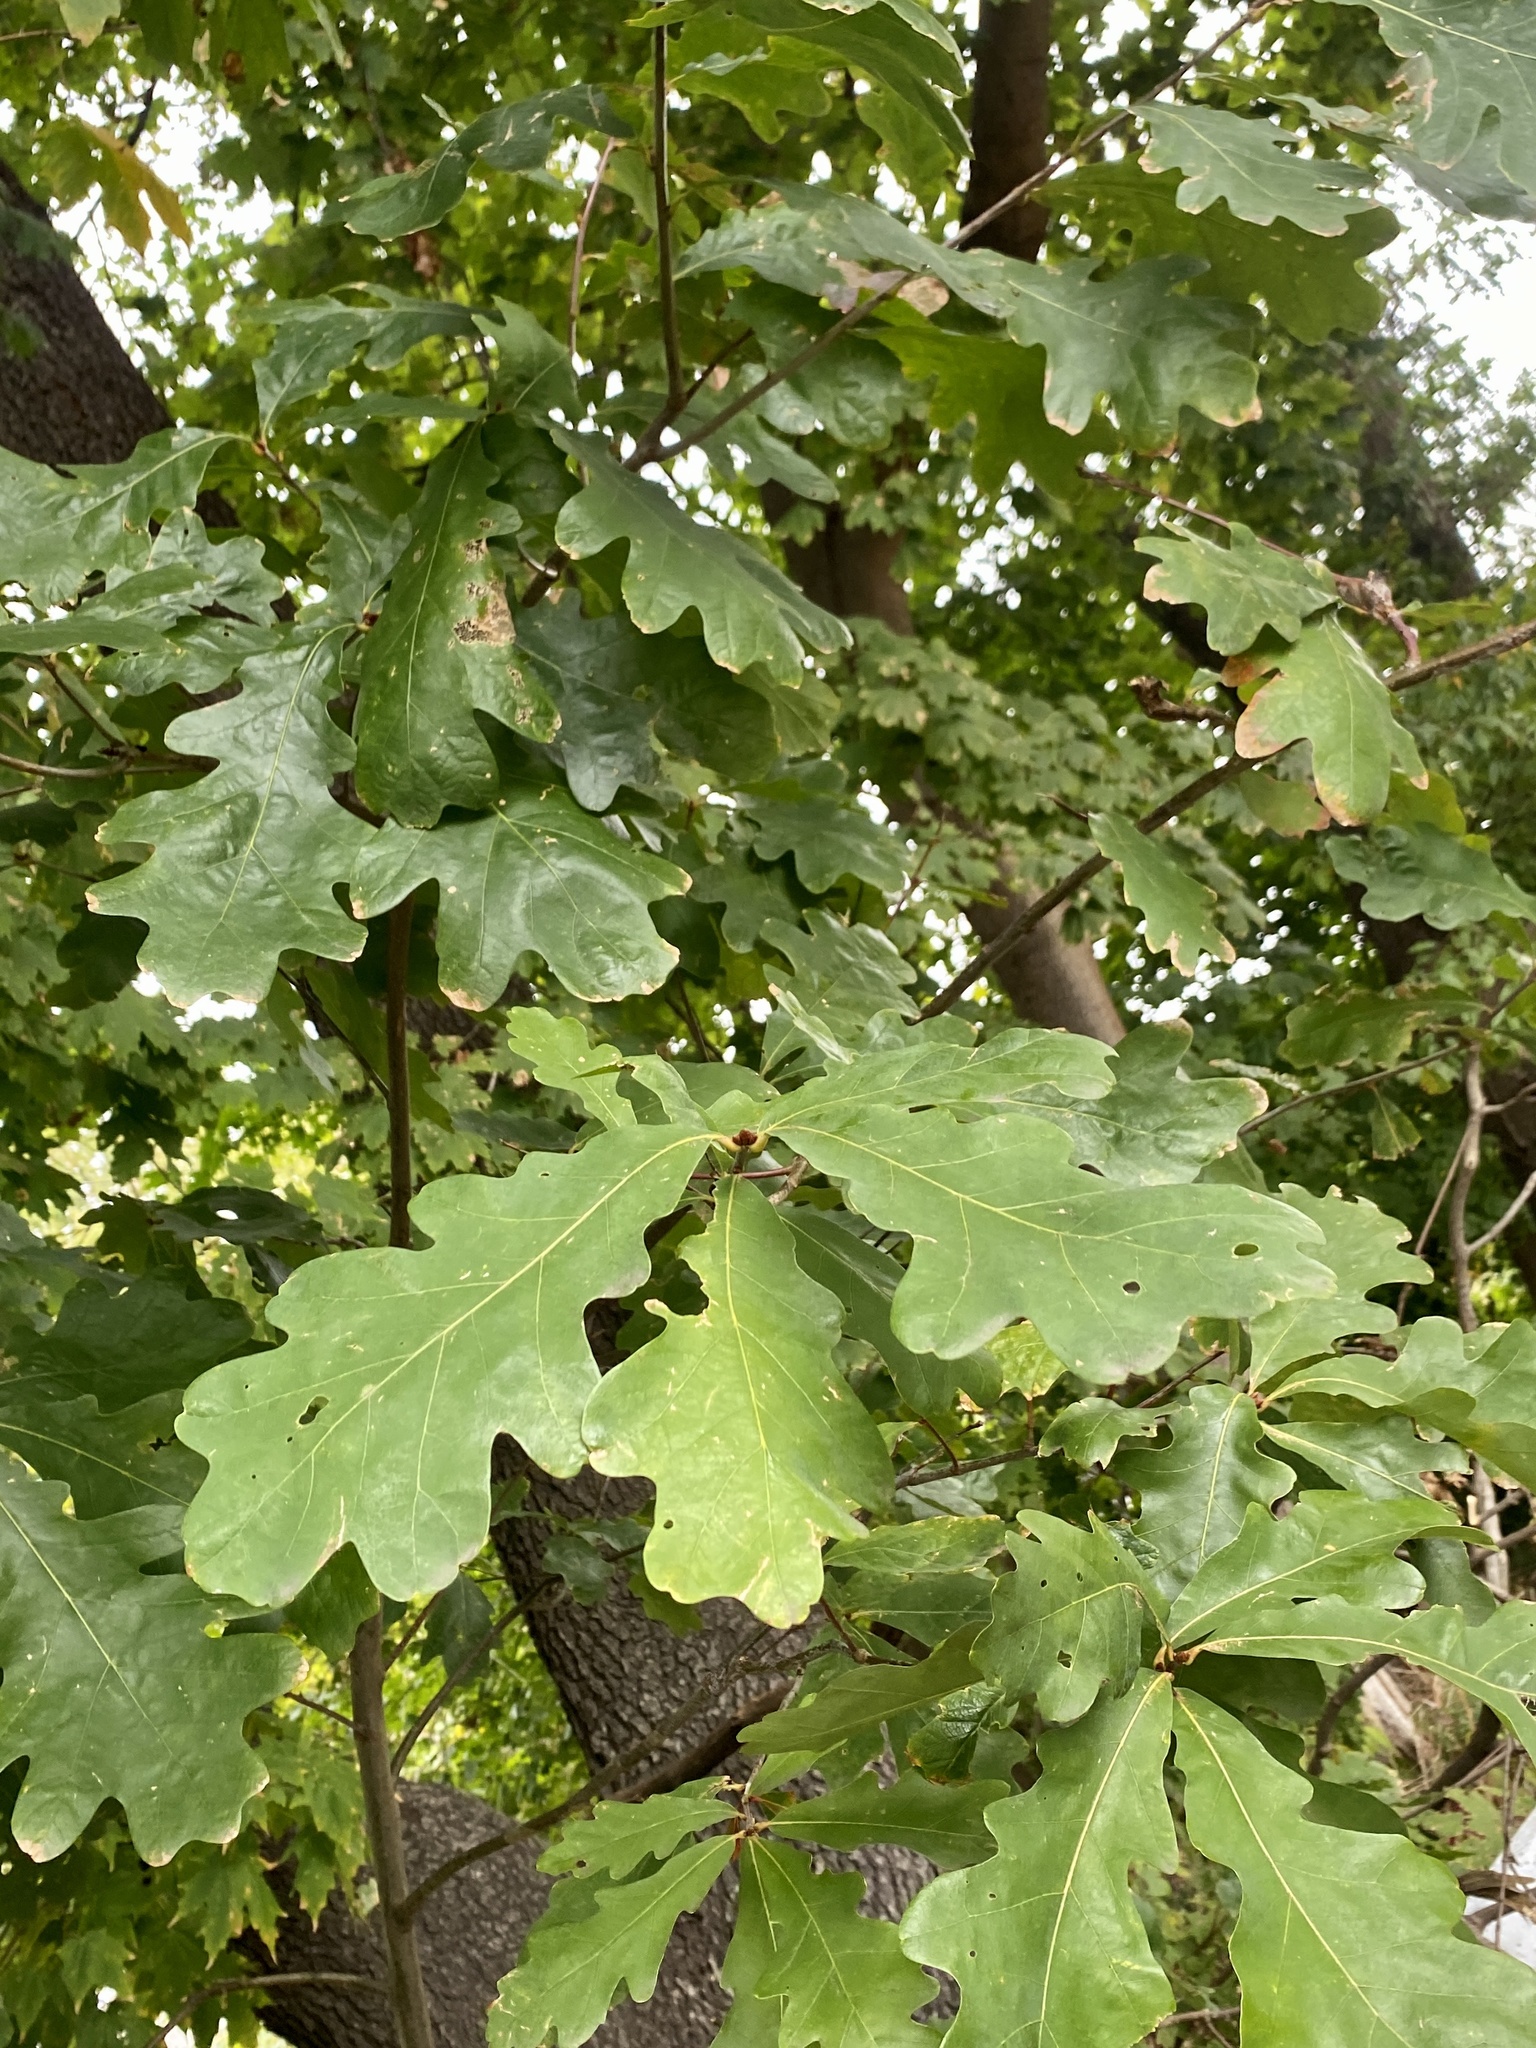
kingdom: Plantae
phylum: Tracheophyta
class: Magnoliopsida
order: Fagales
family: Fagaceae
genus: Quercus
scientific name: Quercus alba
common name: White oak
